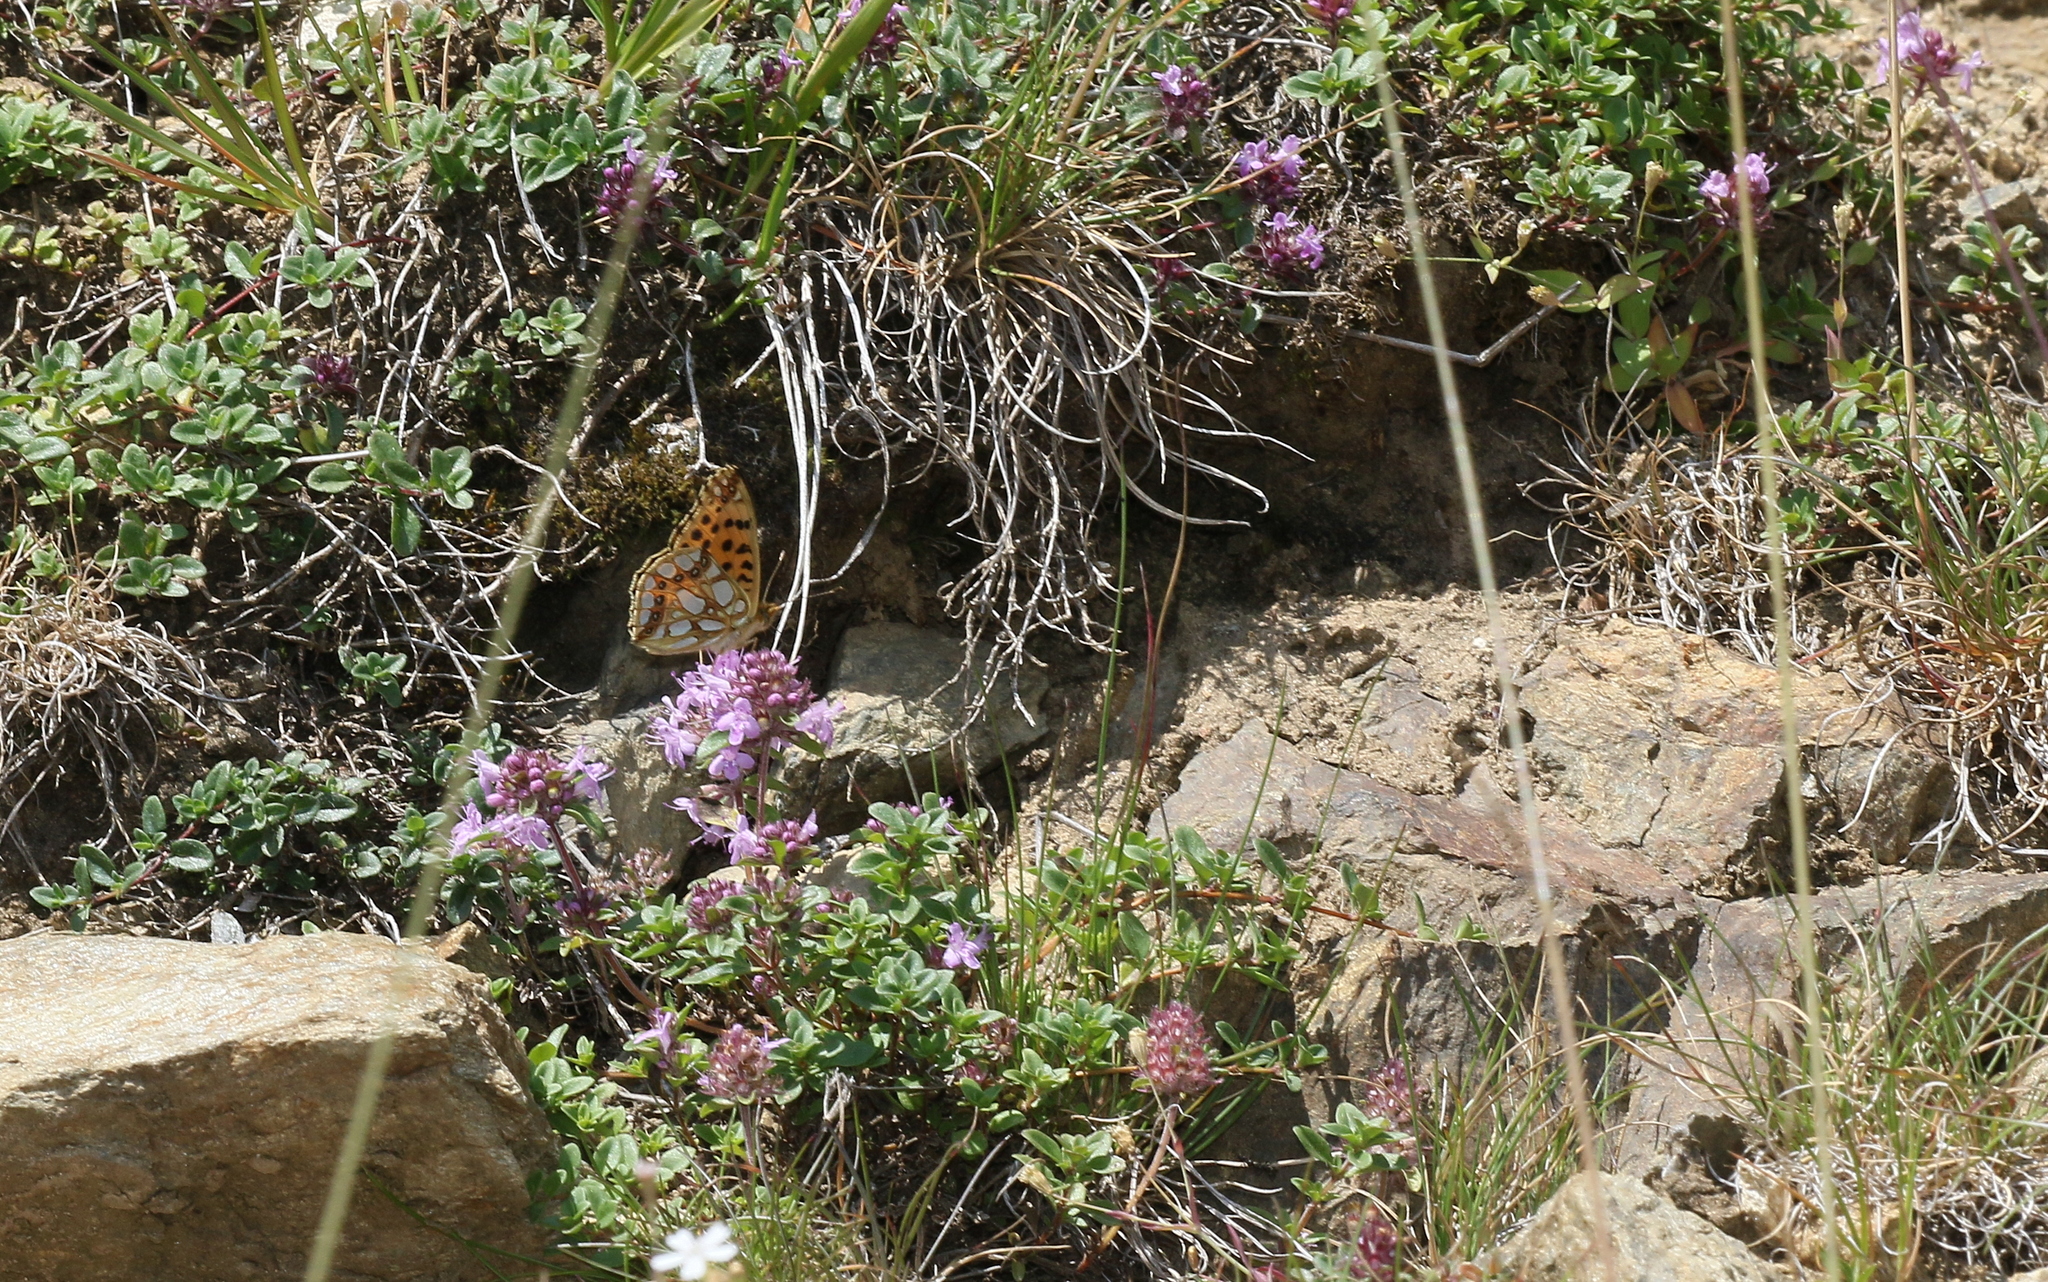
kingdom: Animalia
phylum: Arthropoda
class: Insecta
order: Lepidoptera
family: Nymphalidae
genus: Issoria
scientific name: Issoria lathonia
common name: Queen of spain fritillary
